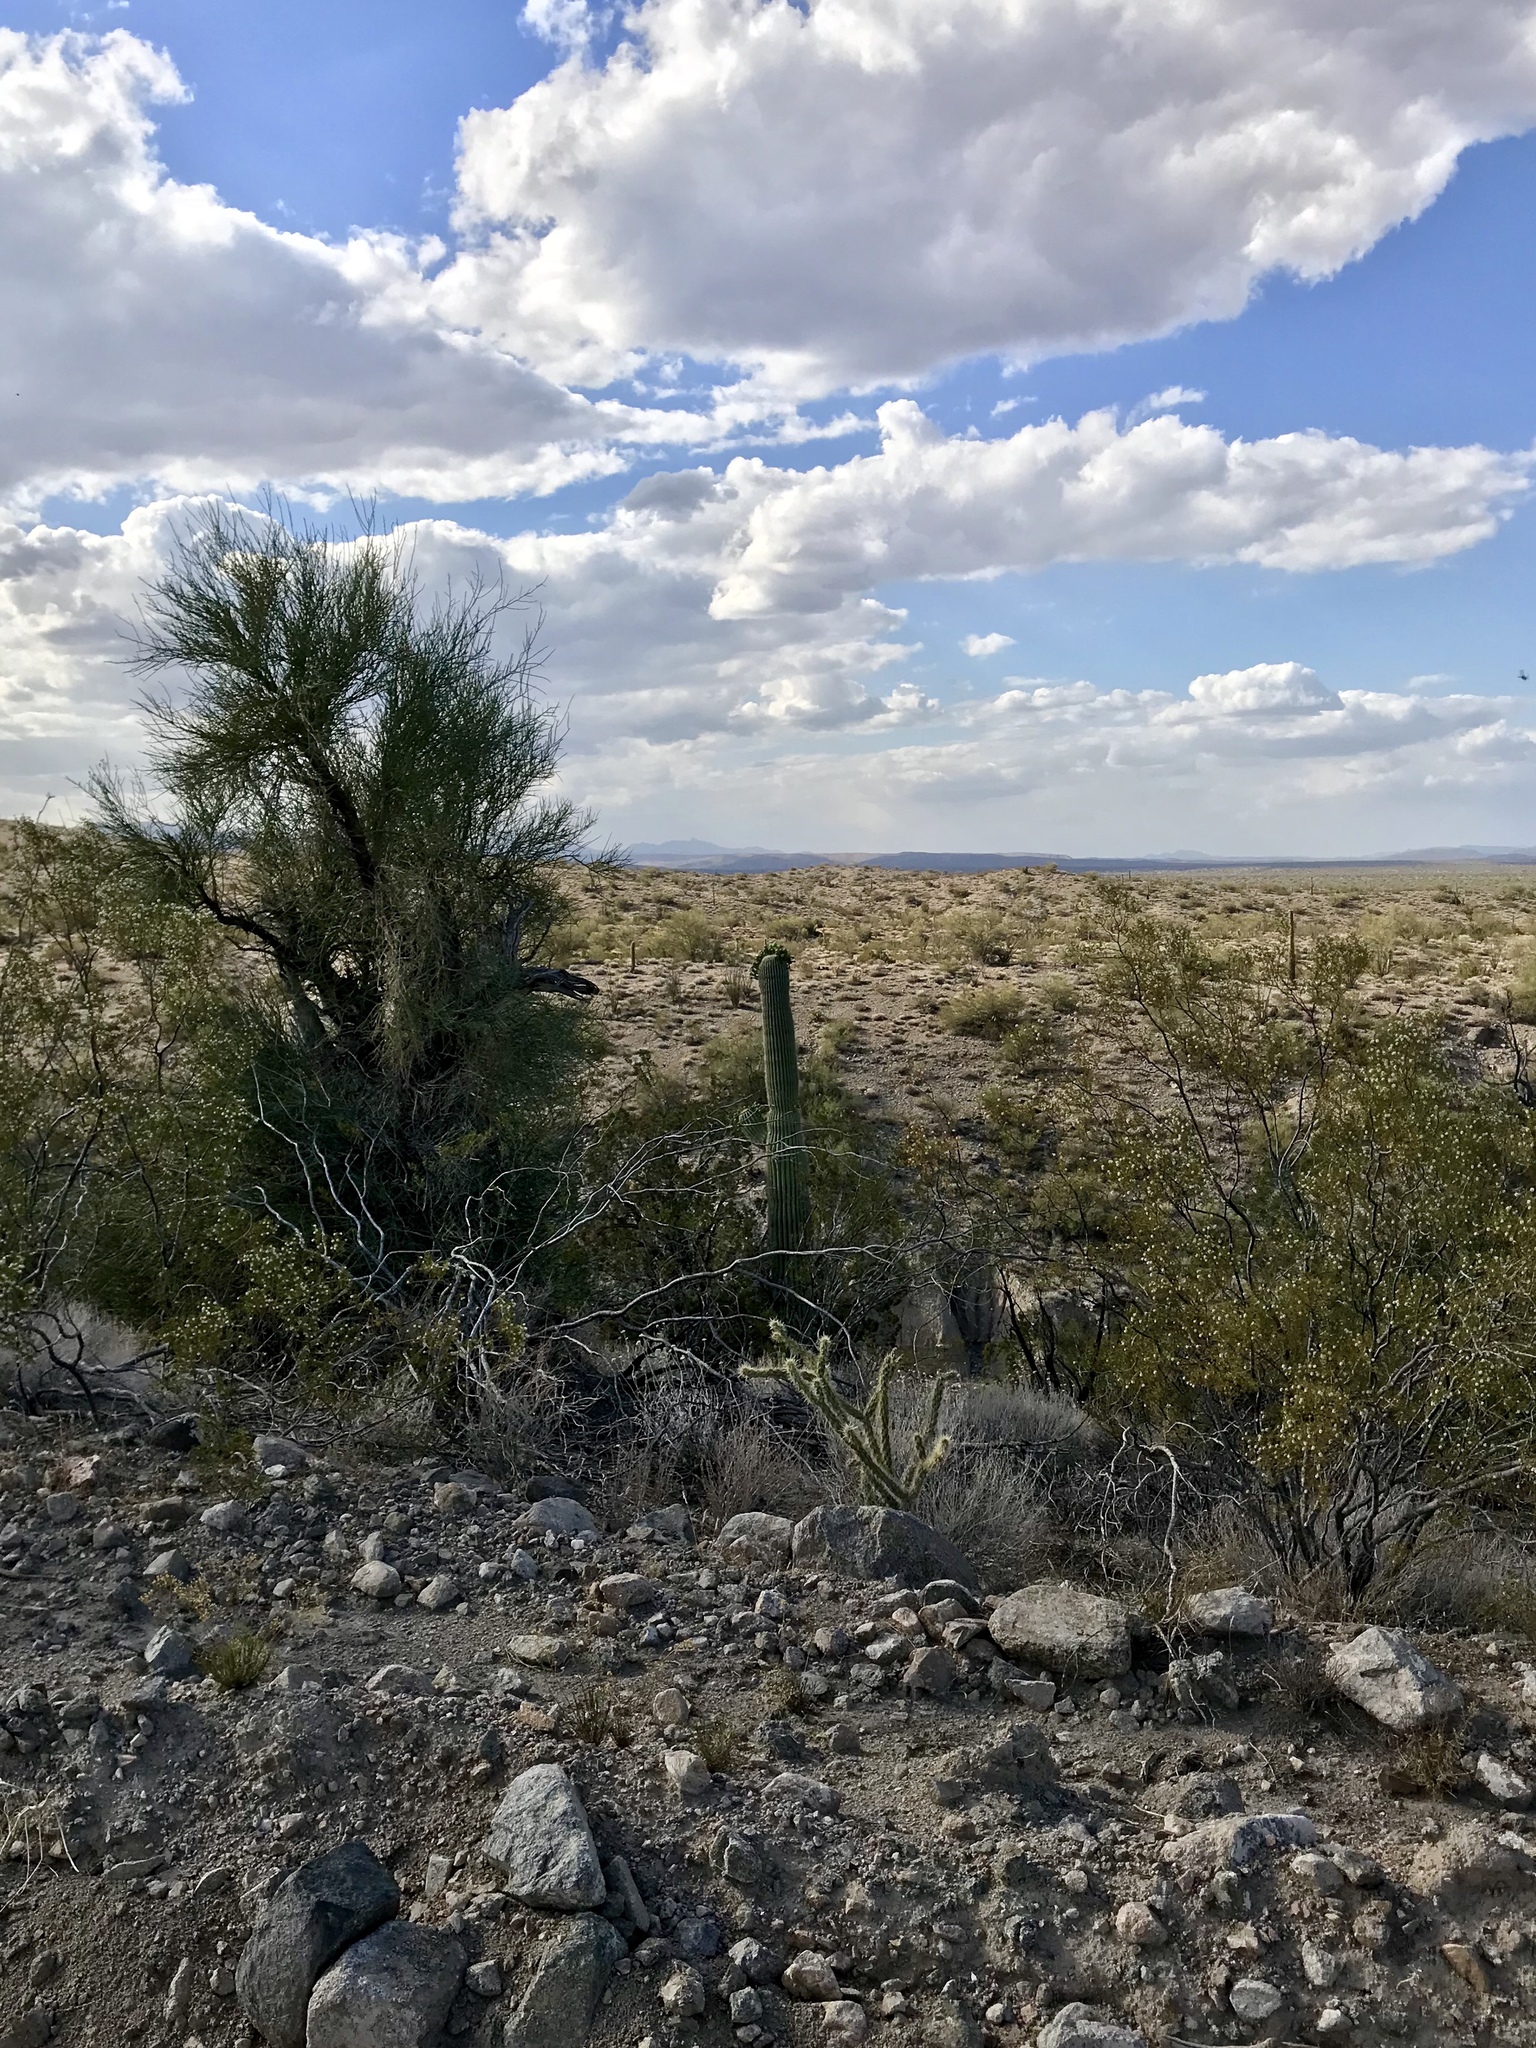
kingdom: Plantae
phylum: Tracheophyta
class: Magnoliopsida
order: Caryophyllales
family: Cactaceae
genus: Carnegiea
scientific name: Carnegiea gigantea
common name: Saguaro
